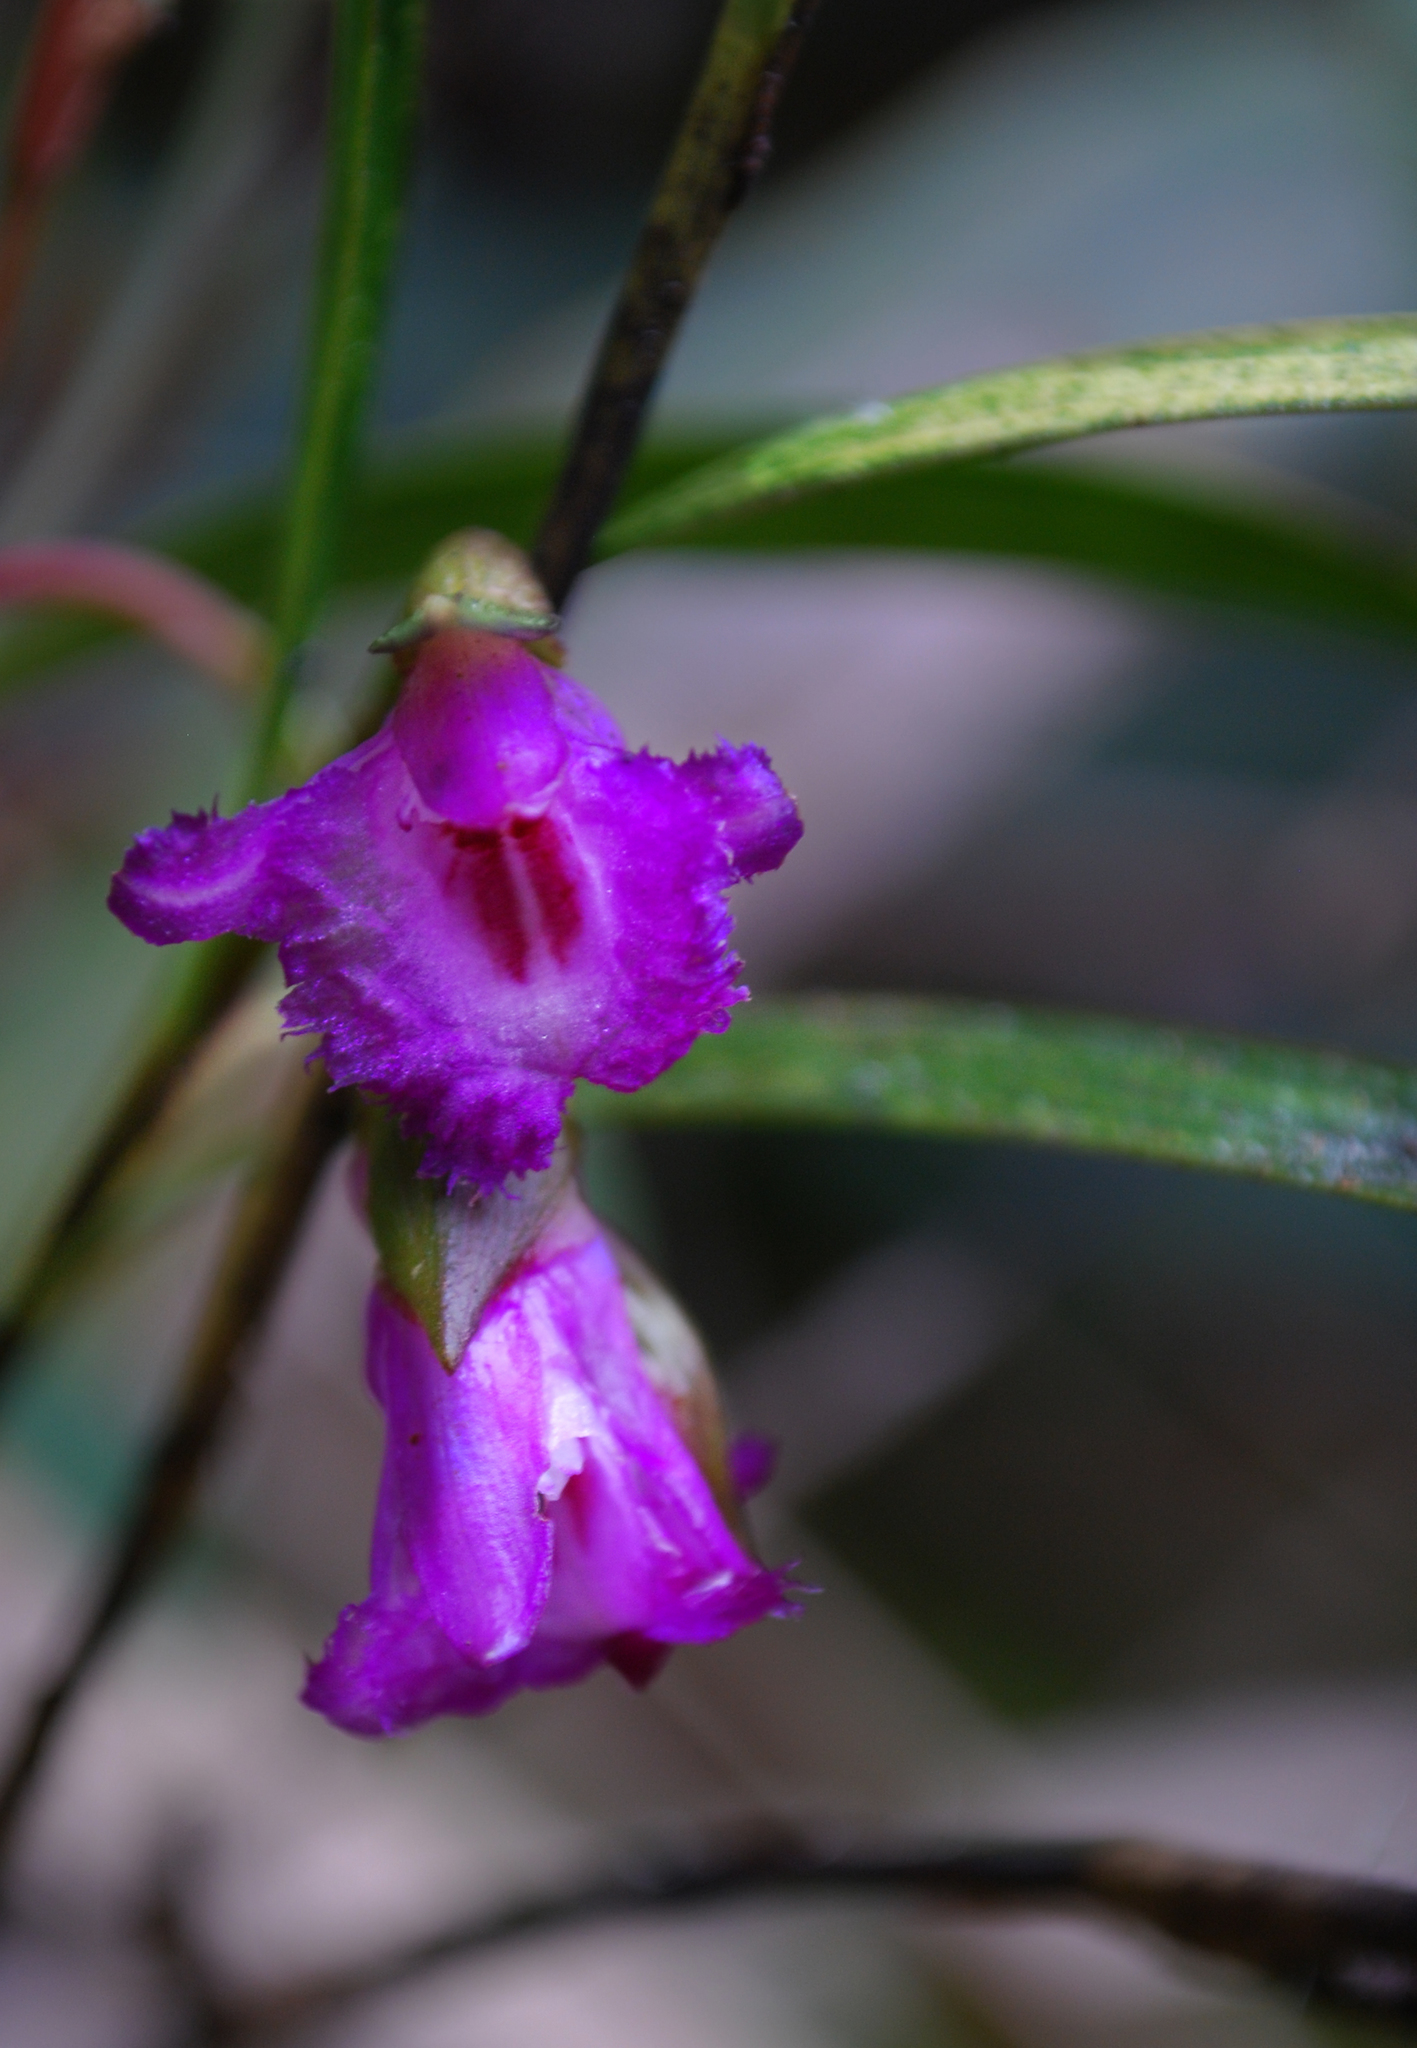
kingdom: Plantae
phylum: Tracheophyta
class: Liliopsida
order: Asparagales
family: Orchidaceae
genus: Elleanthus
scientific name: Elleanthus amethystinus
